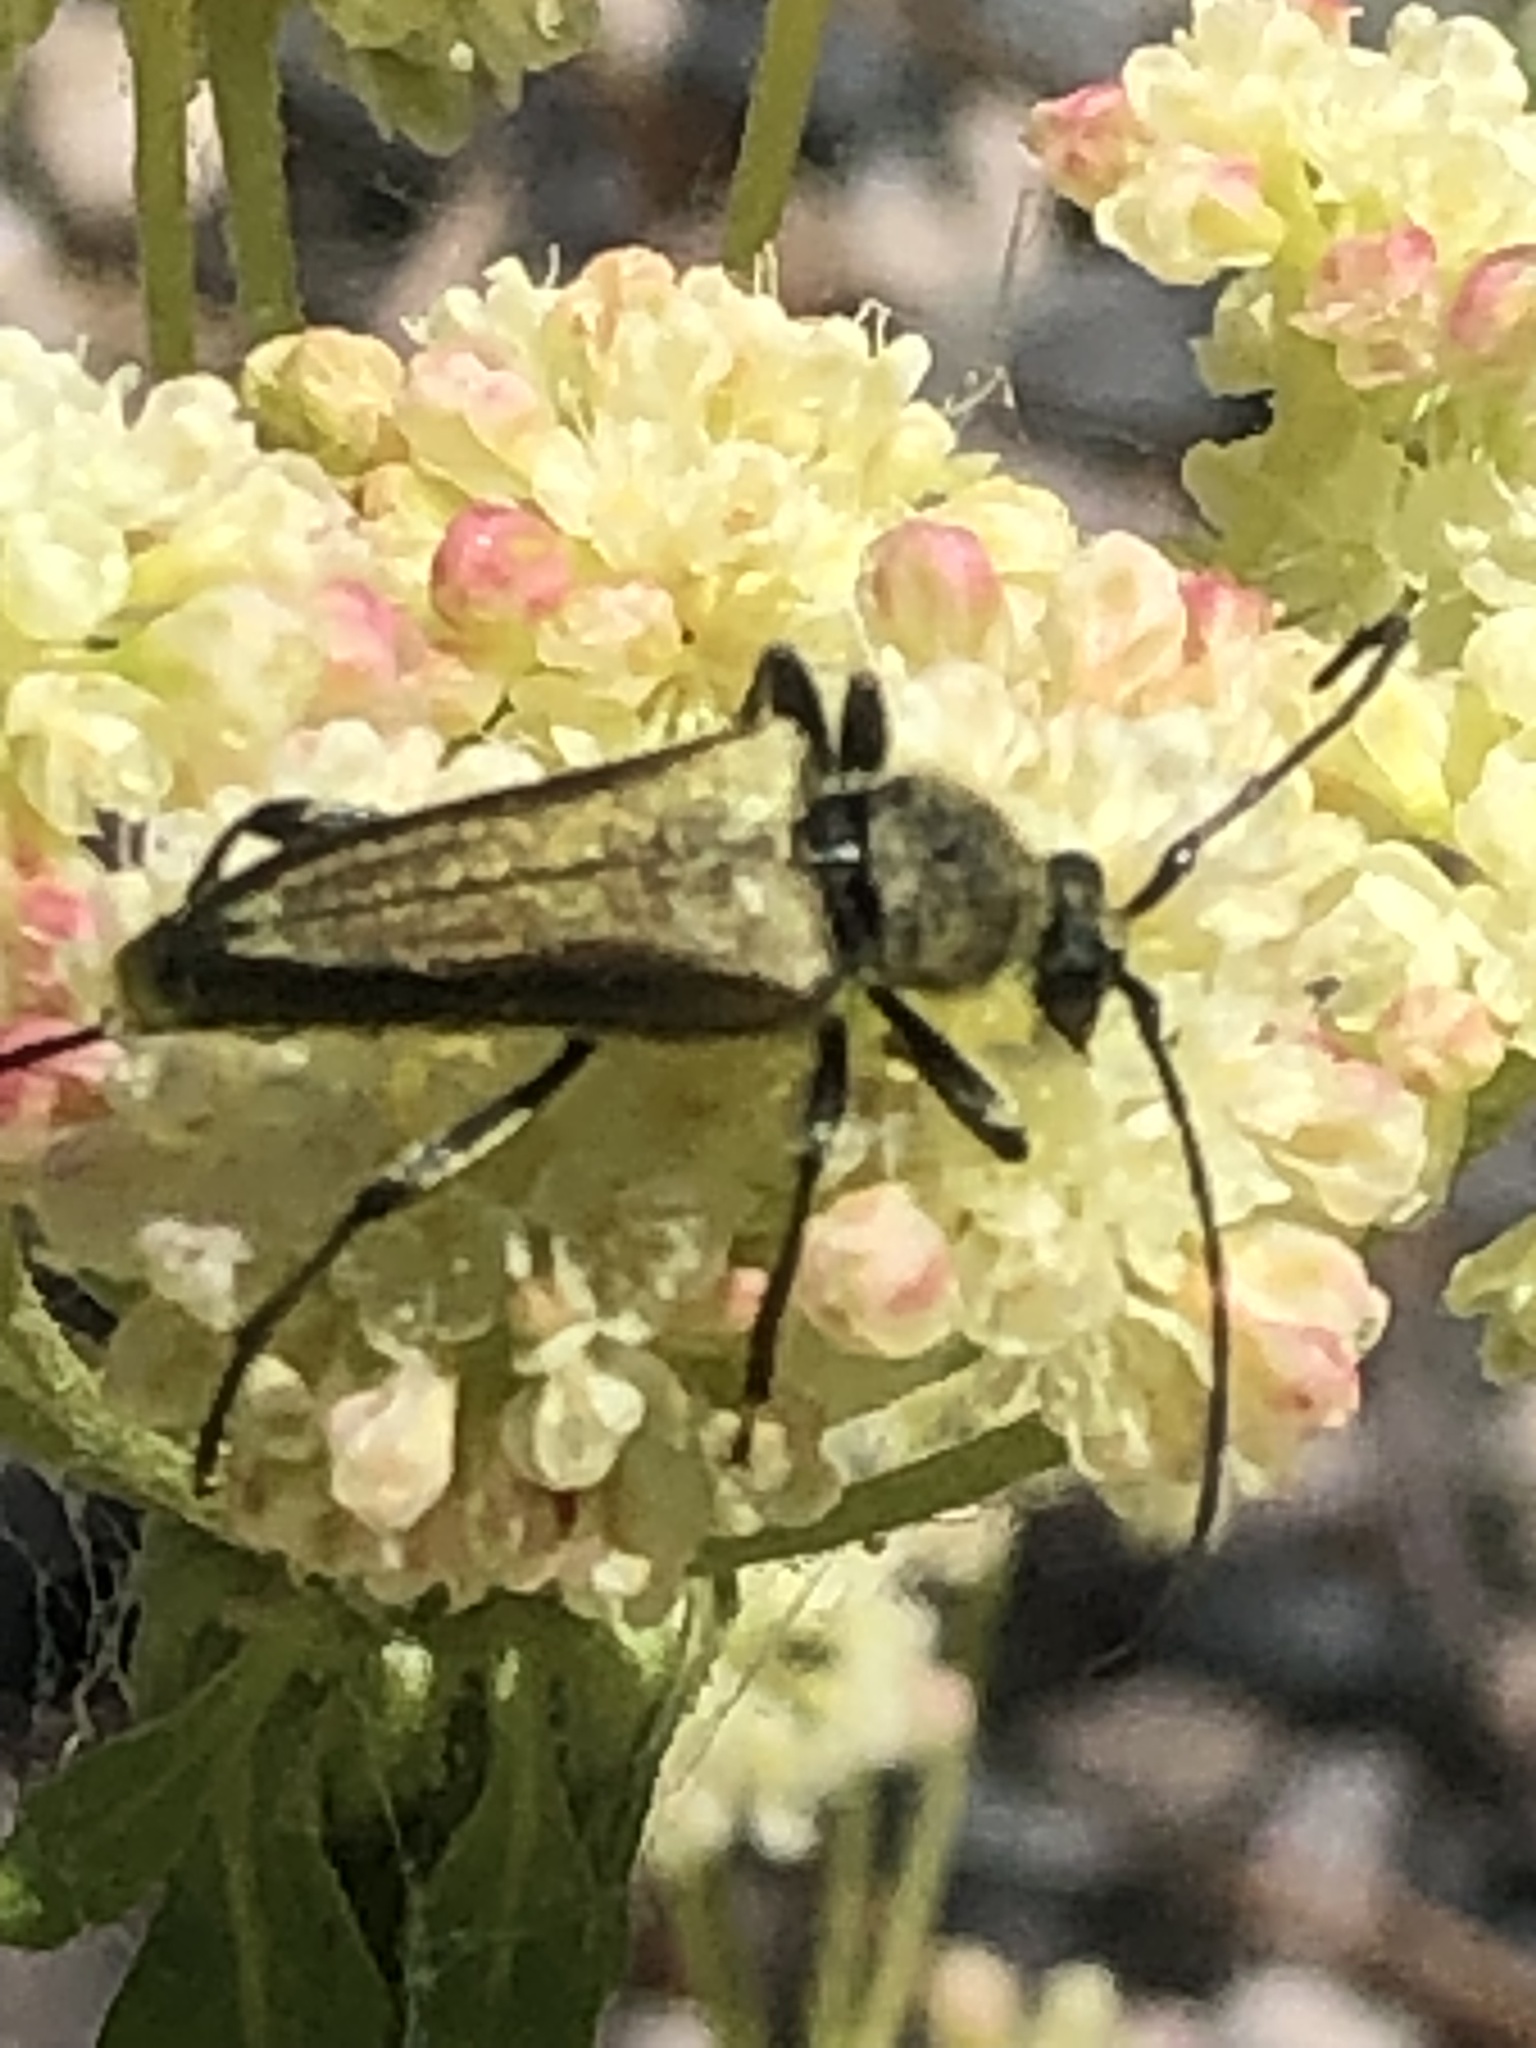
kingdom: Animalia
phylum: Arthropoda
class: Insecta
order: Coleoptera
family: Cerambycidae
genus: Cosmosalia
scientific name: Cosmosalia chrysocoma
